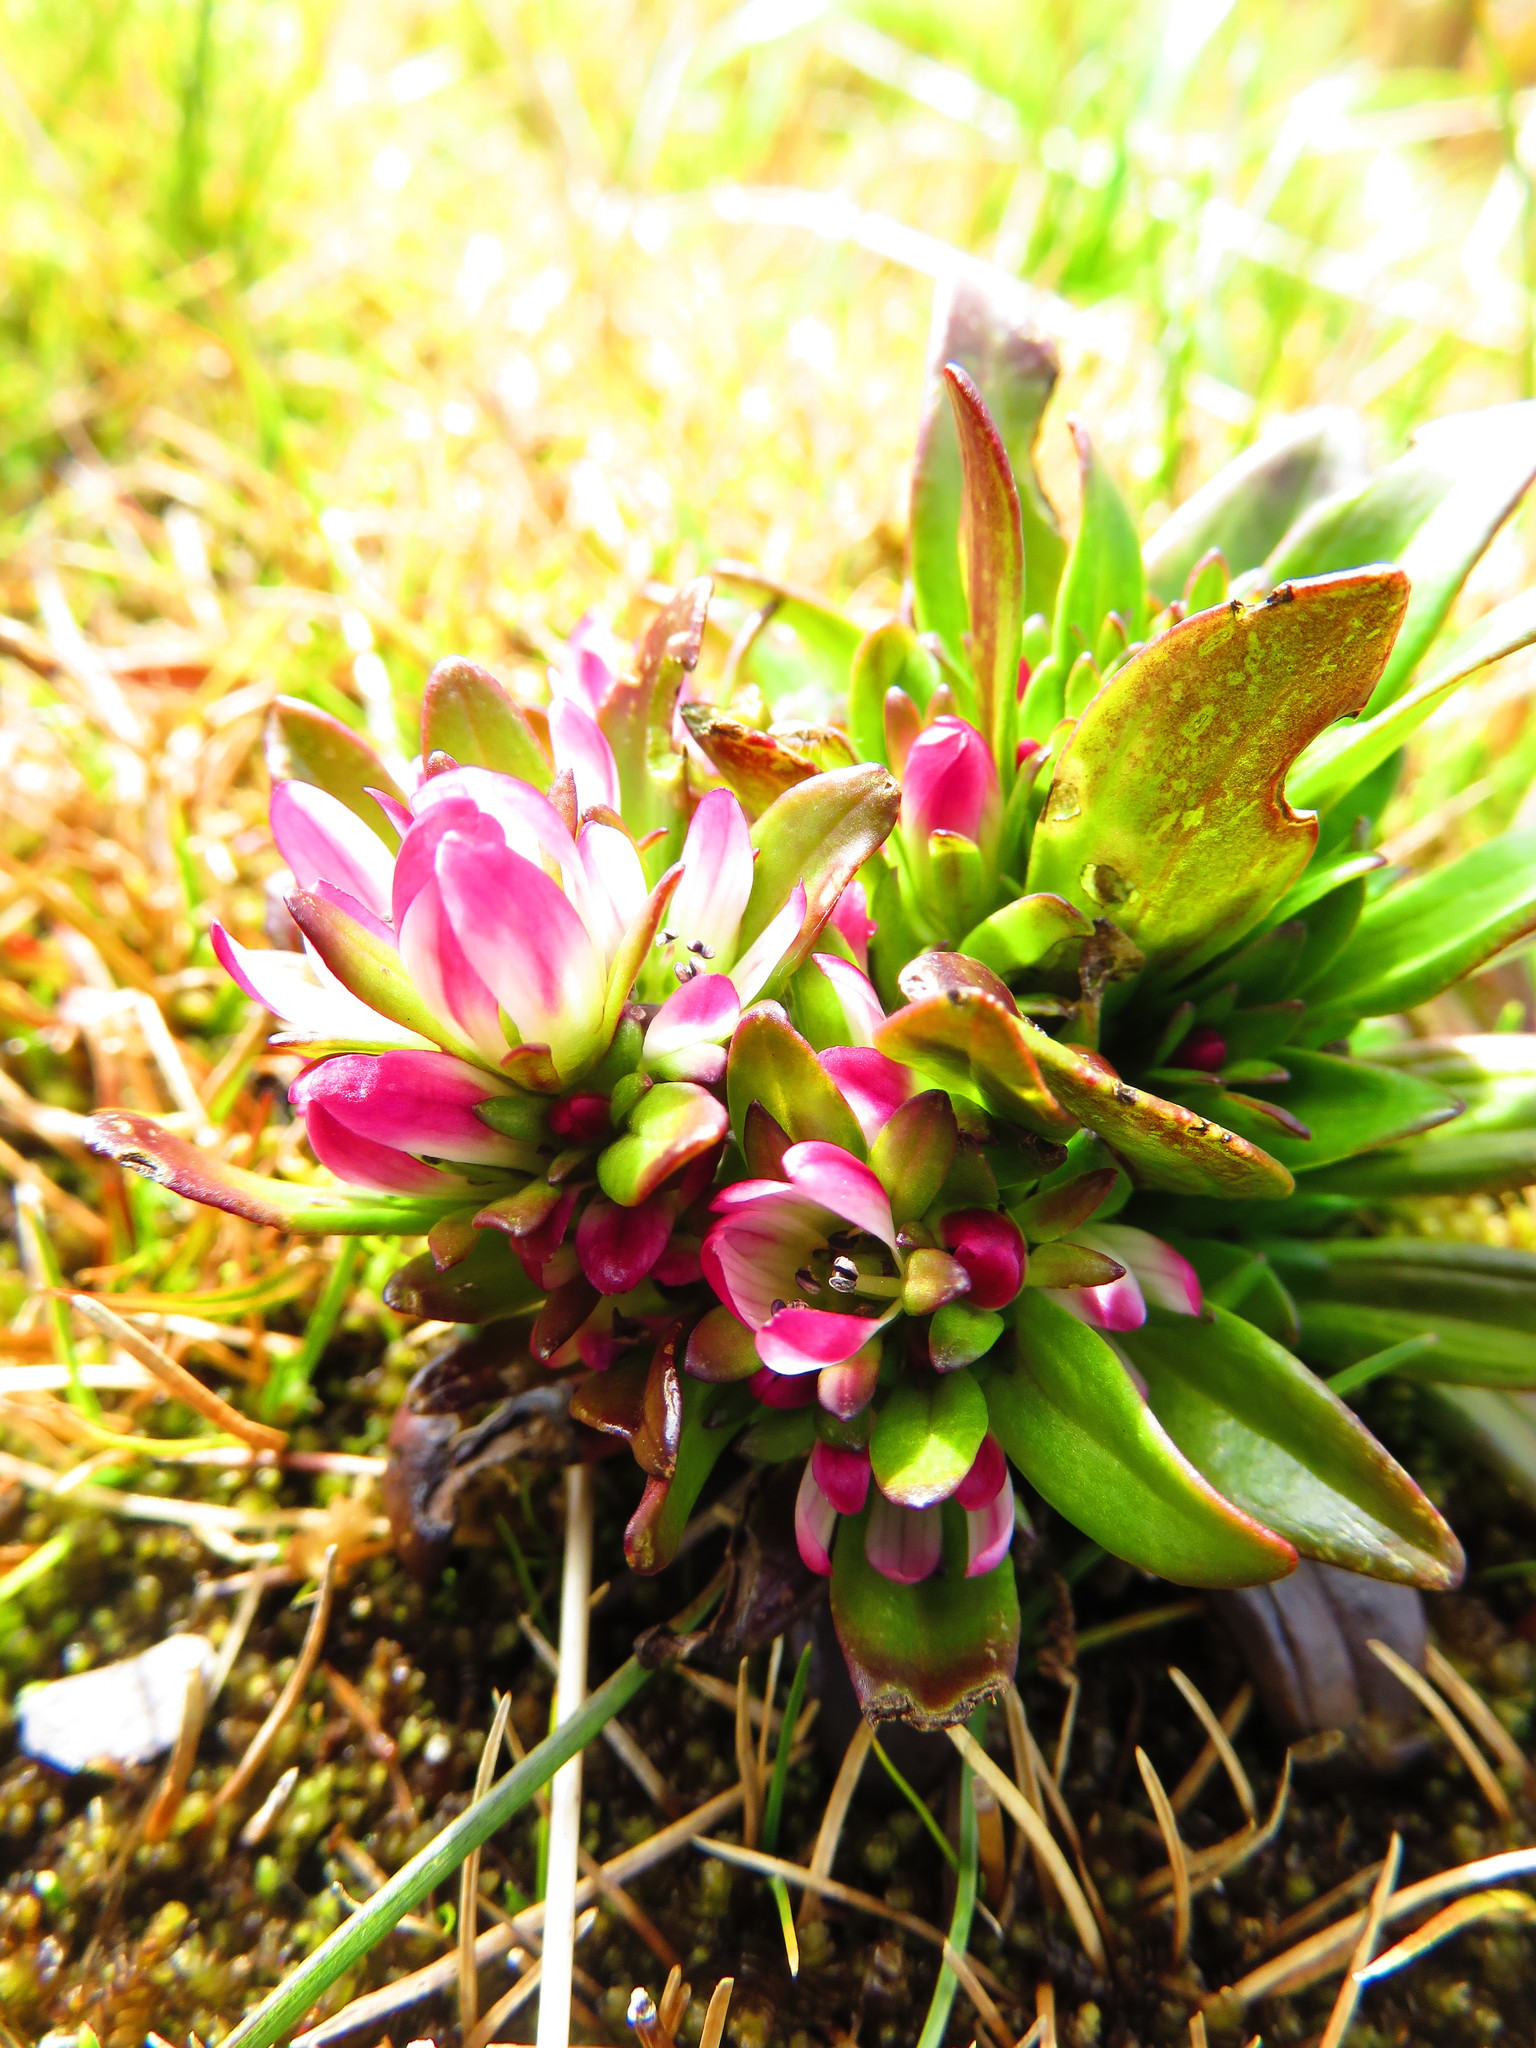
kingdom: Plantae
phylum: Tracheophyta
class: Magnoliopsida
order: Gentianales
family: Gentianaceae
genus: Gentianella
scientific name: Gentianella antarctica
